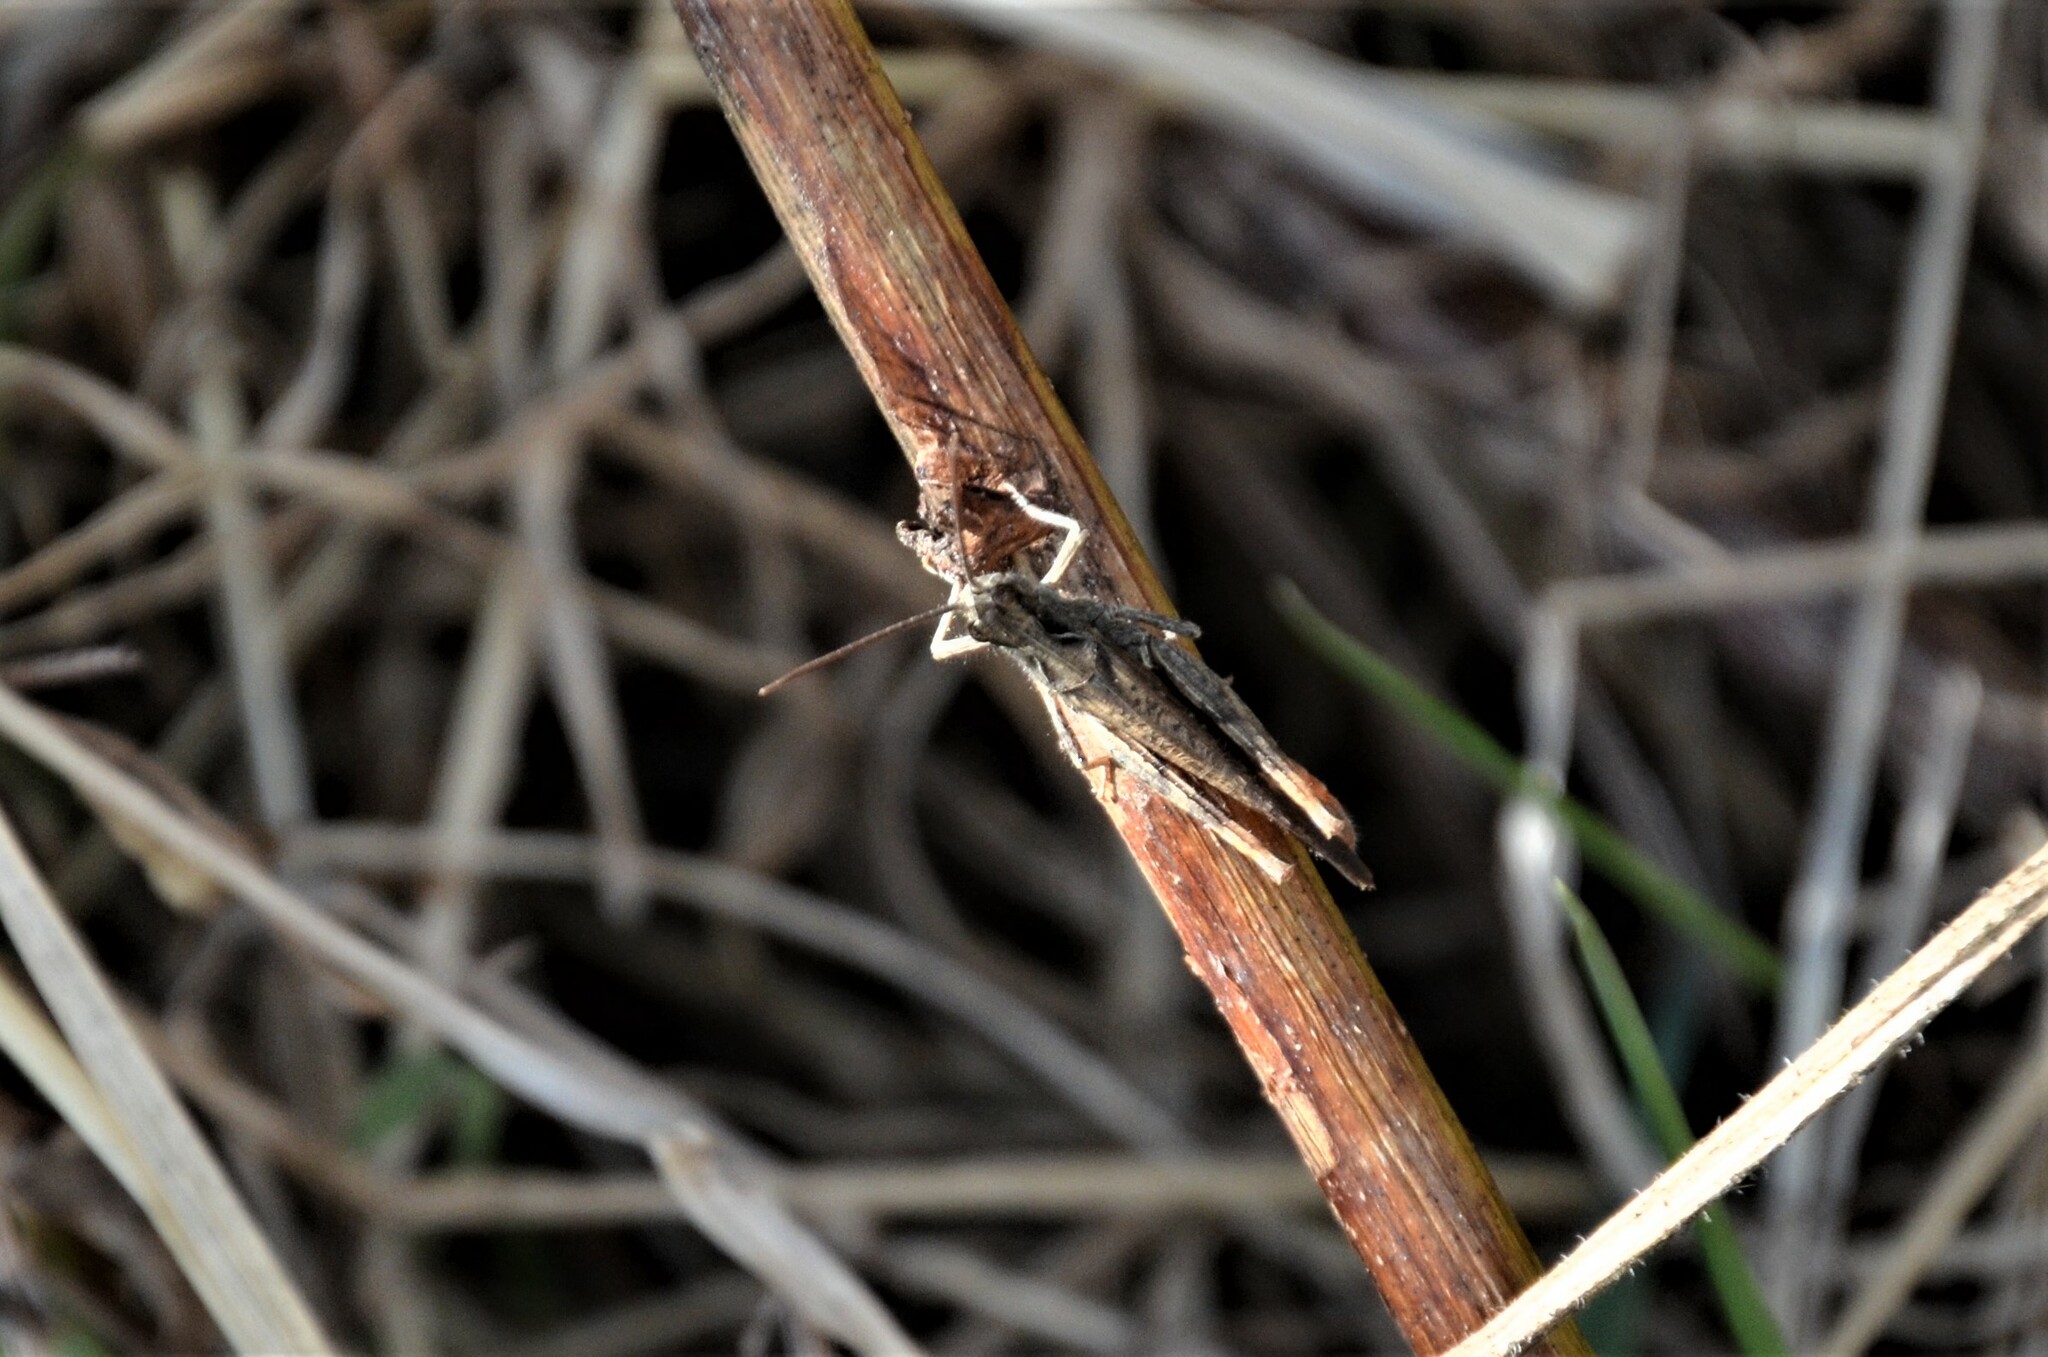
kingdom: Animalia
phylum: Arthropoda
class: Insecta
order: Orthoptera
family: Acrididae
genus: Chorthippus
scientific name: Chorthippus brunneus
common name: Field grasshopper
